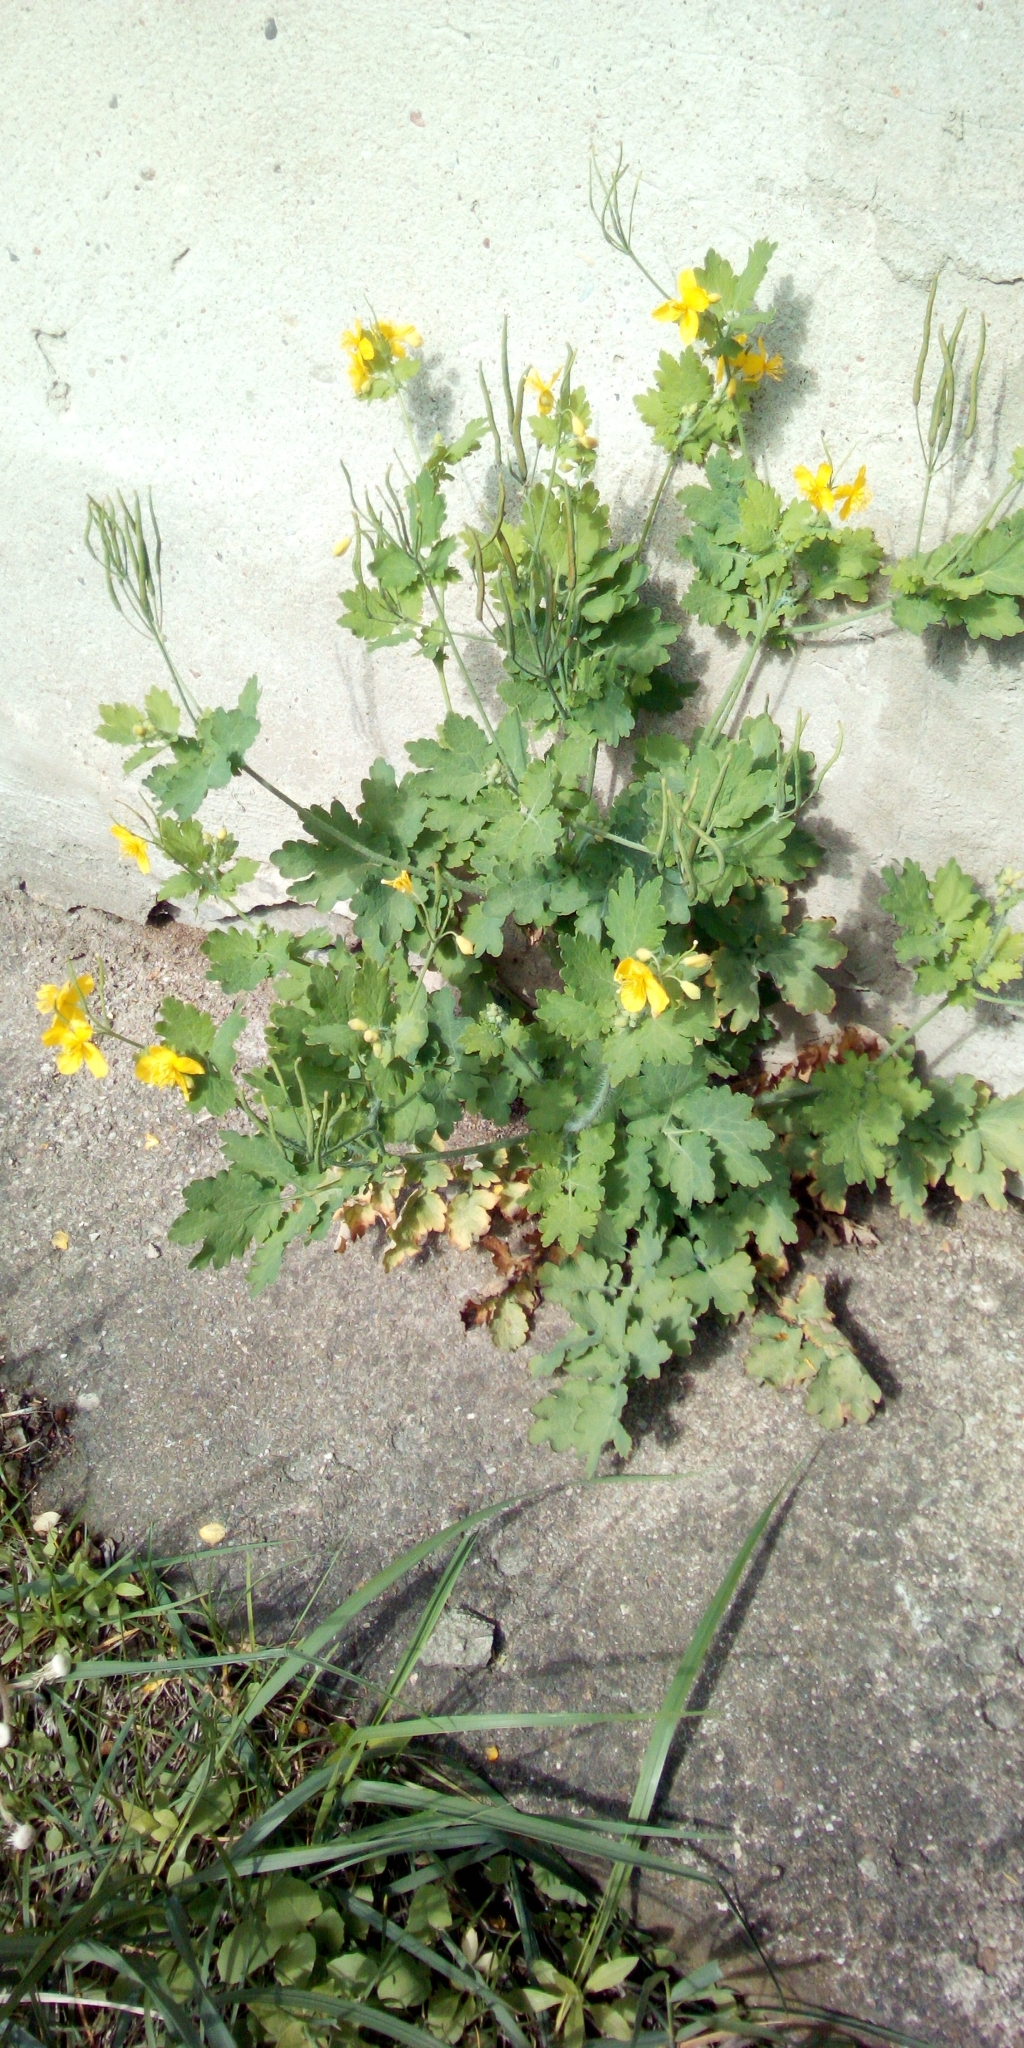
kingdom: Plantae
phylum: Tracheophyta
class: Magnoliopsida
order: Ranunculales
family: Papaveraceae
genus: Chelidonium
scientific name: Chelidonium majus
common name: Greater celandine
